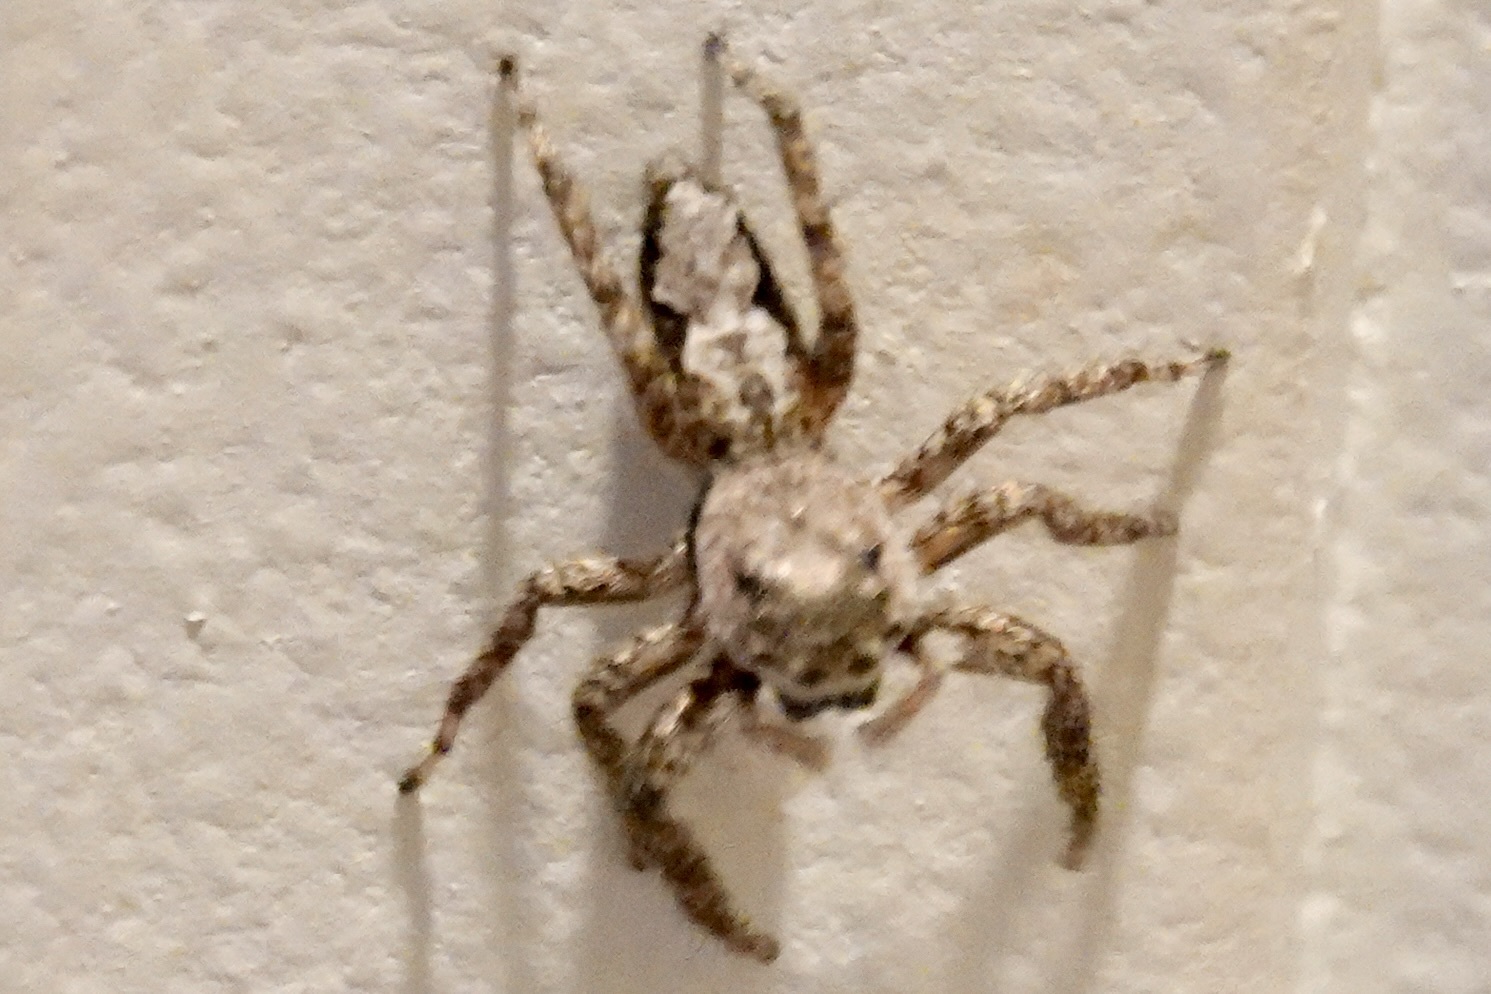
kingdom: Animalia
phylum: Arthropoda
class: Arachnida
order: Araneae
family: Salticidae
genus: Platycryptus
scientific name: Platycryptus undatus
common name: Tan jumping spider
